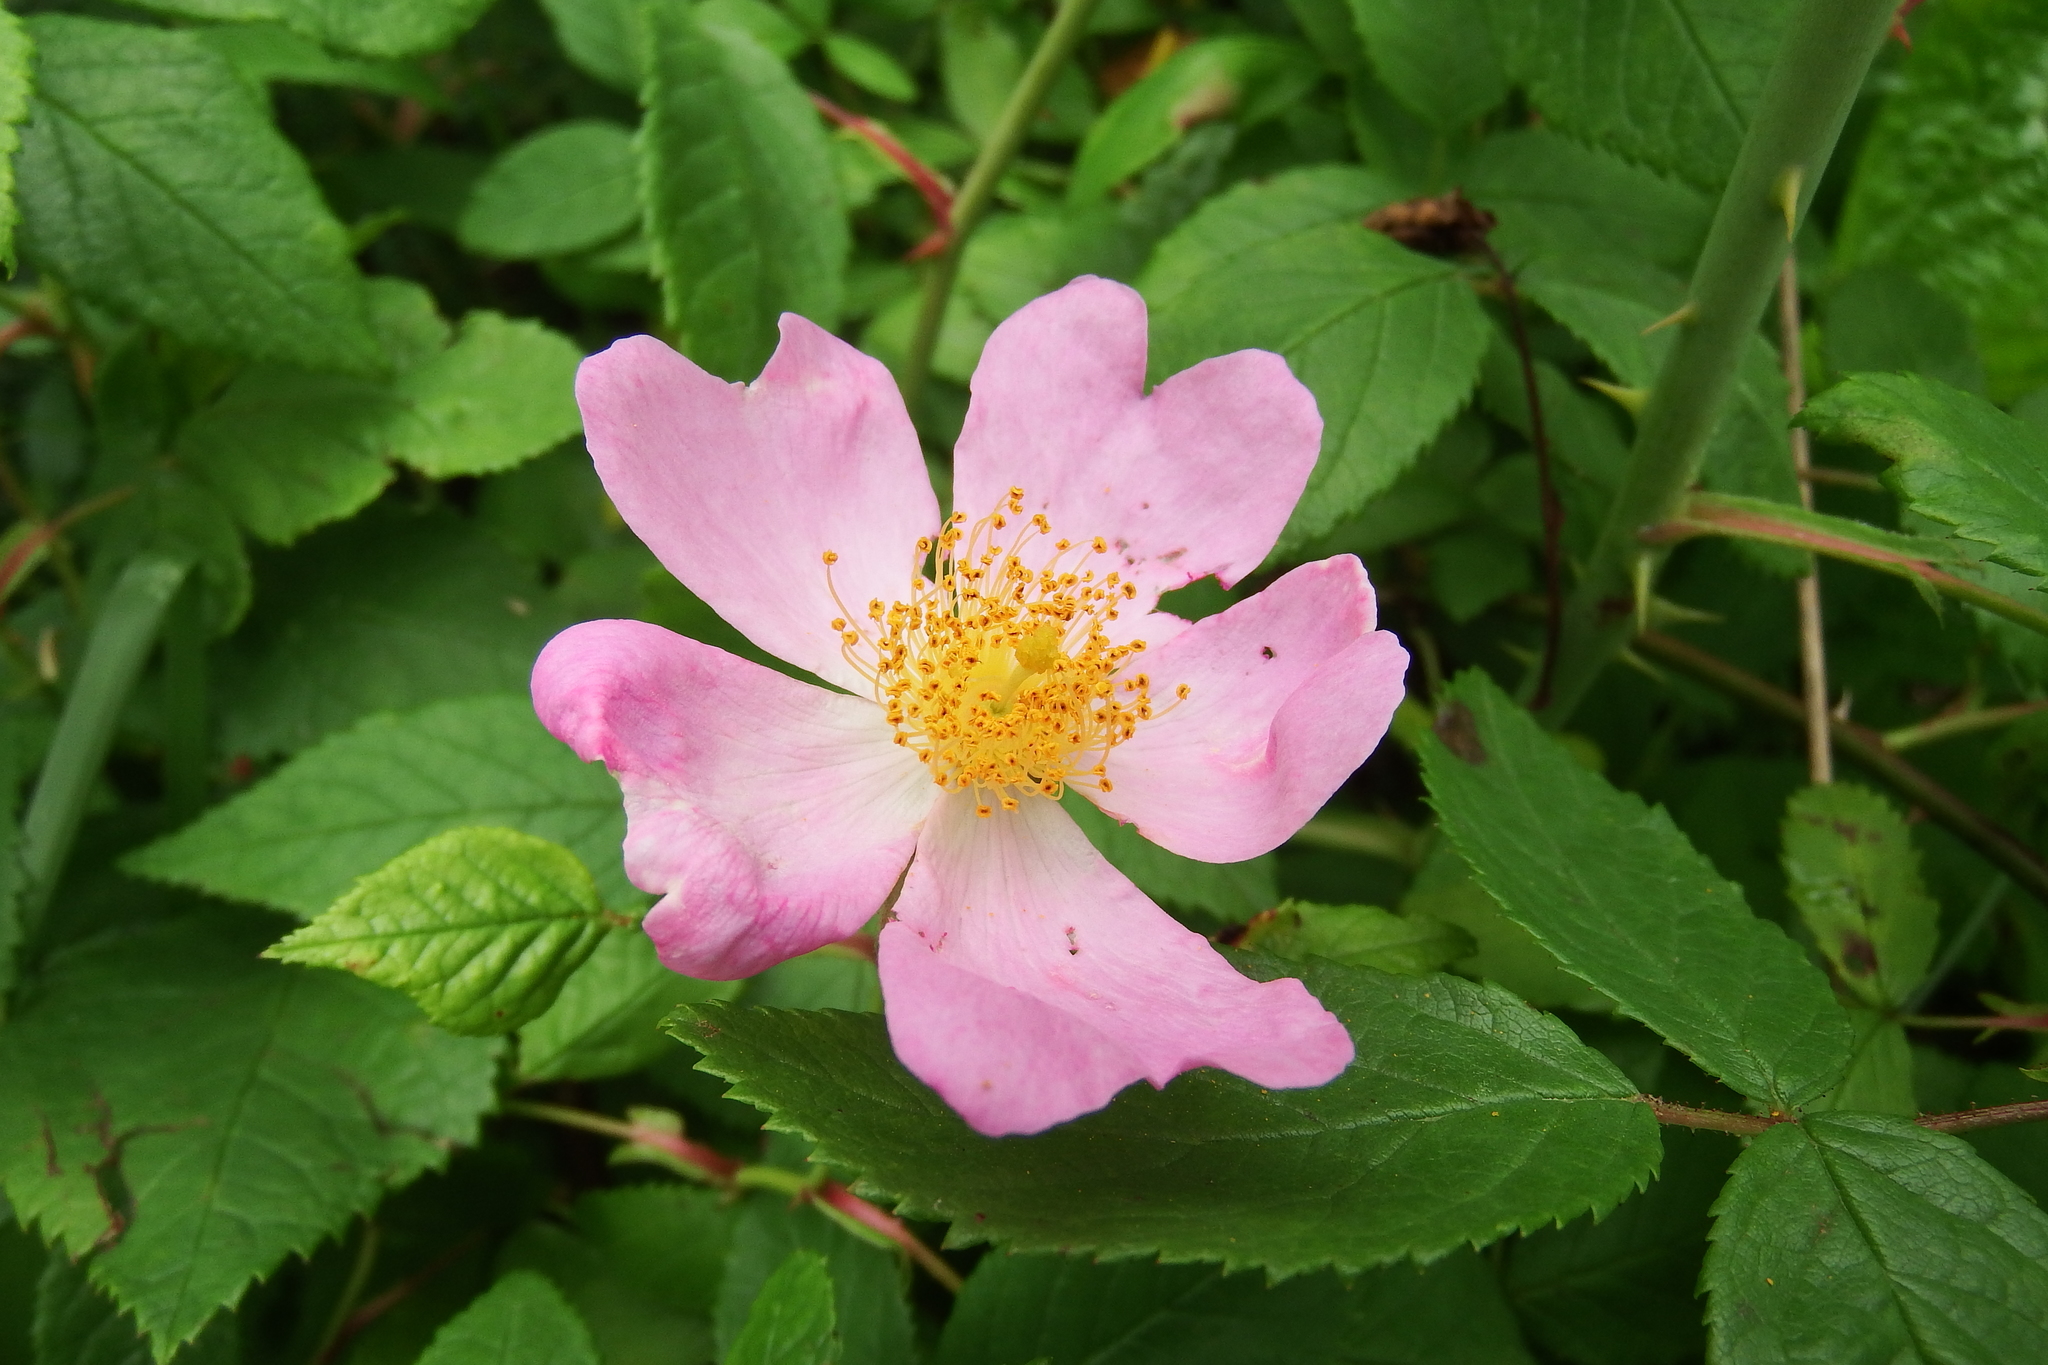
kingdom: Plantae
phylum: Tracheophyta
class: Magnoliopsida
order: Rosales
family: Rosaceae
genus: Rosa
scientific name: Rosa setigera
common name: Prairie rose
